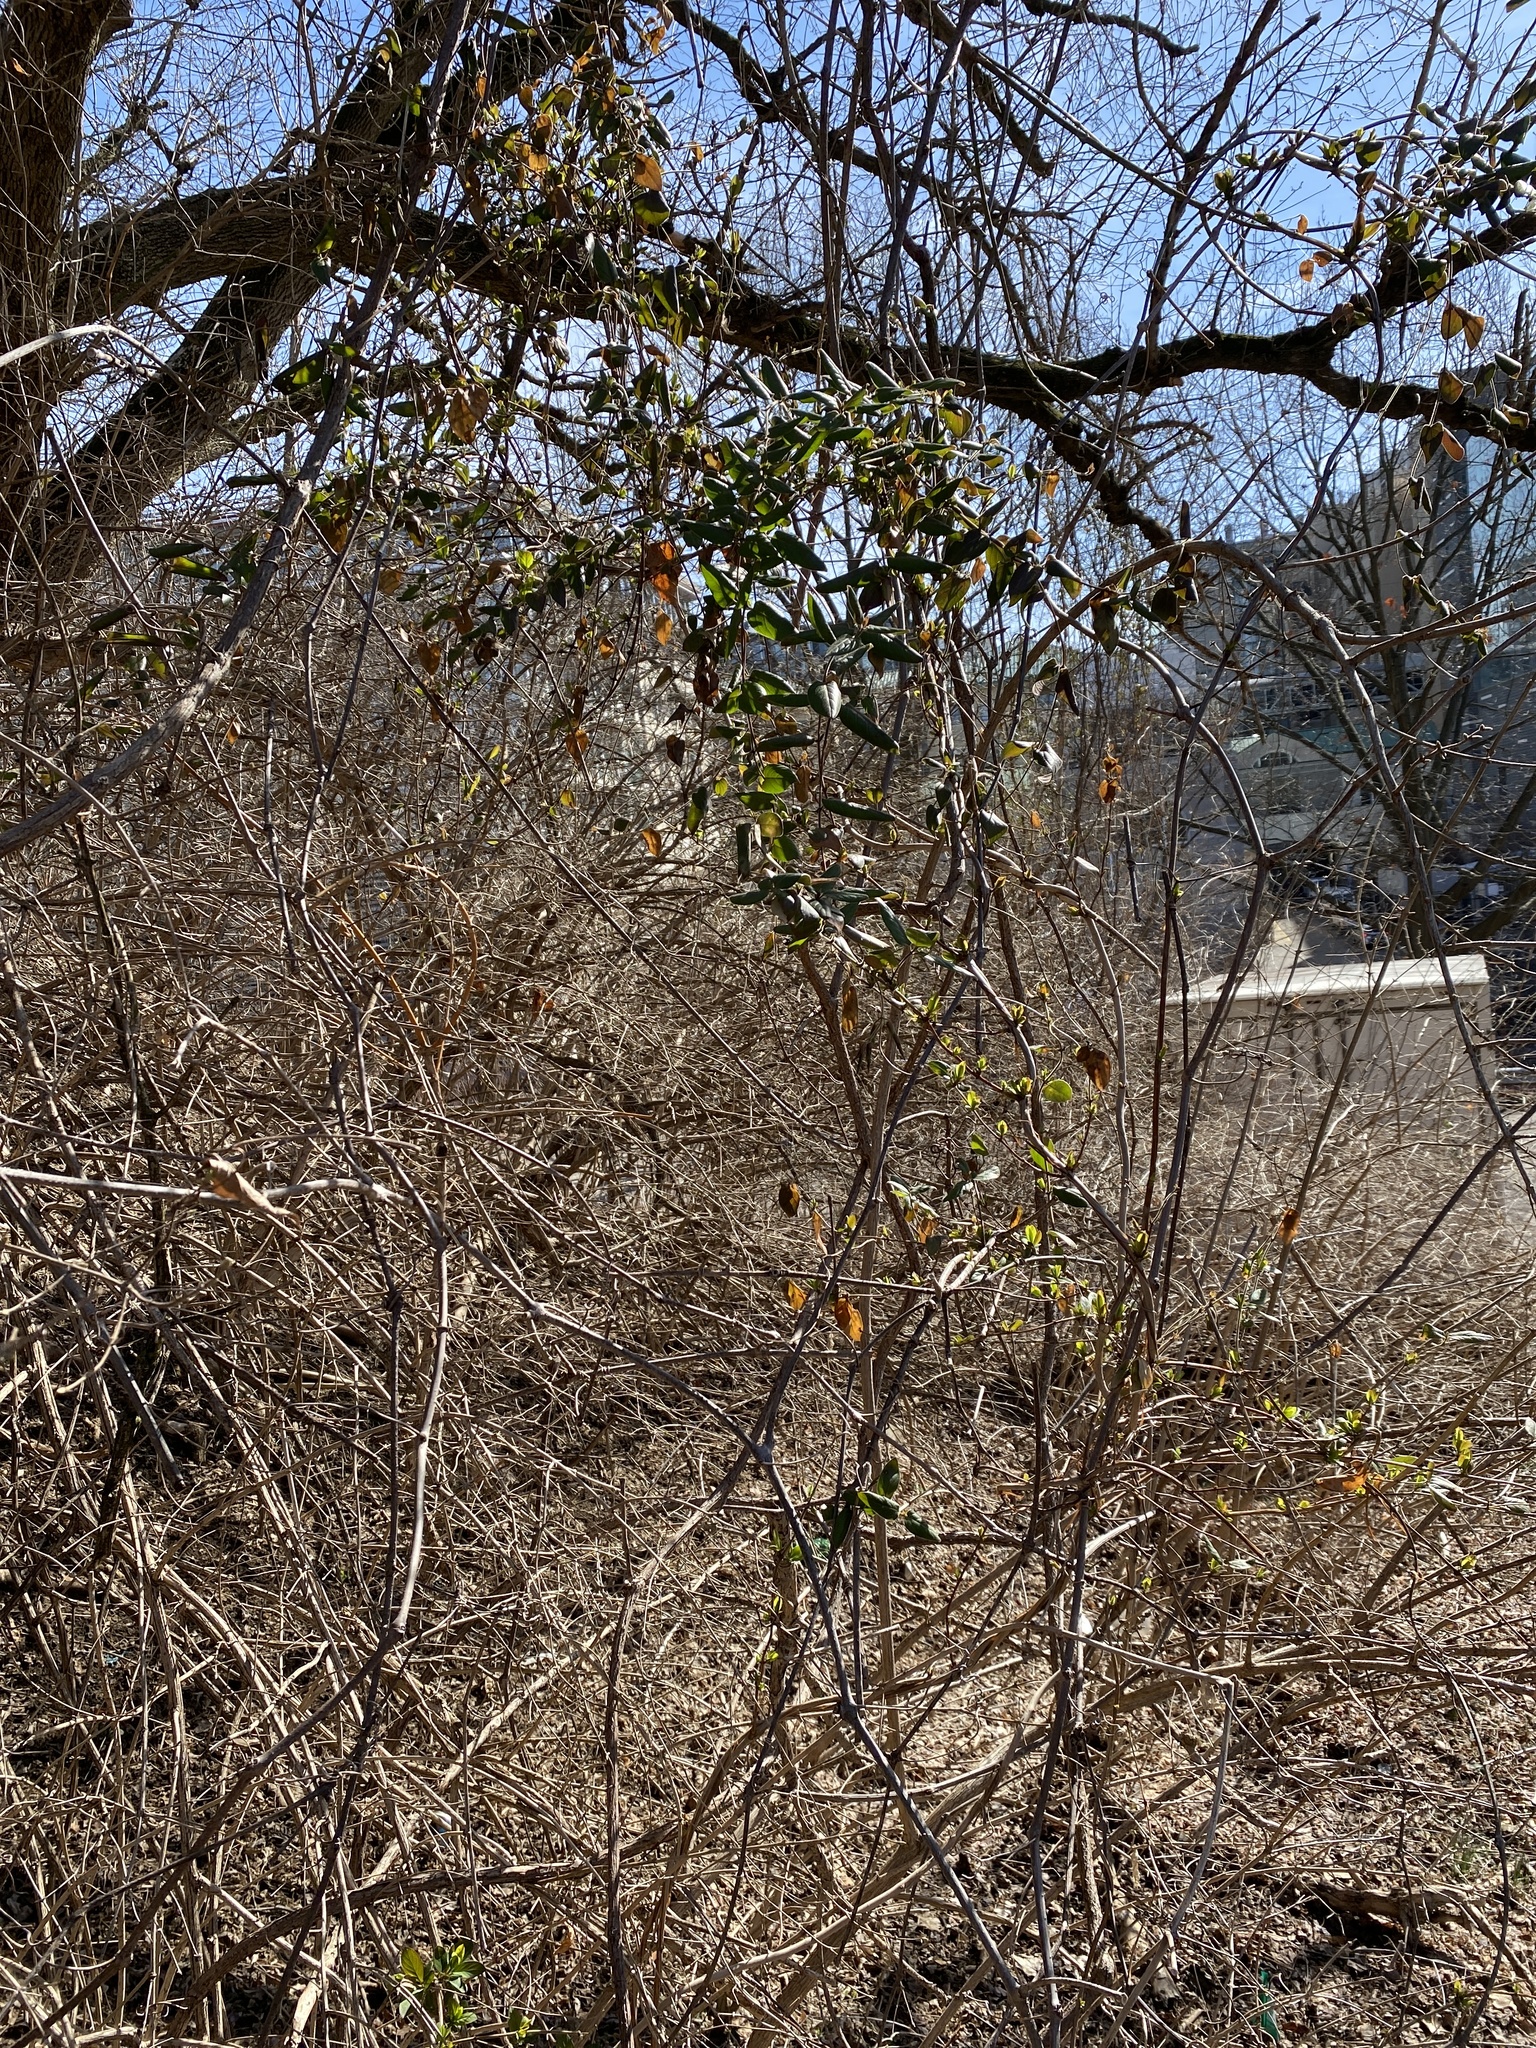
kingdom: Plantae
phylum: Tracheophyta
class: Magnoliopsida
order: Dipsacales
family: Caprifoliaceae
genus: Lonicera
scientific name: Lonicera japonica
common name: Japanese honeysuckle
